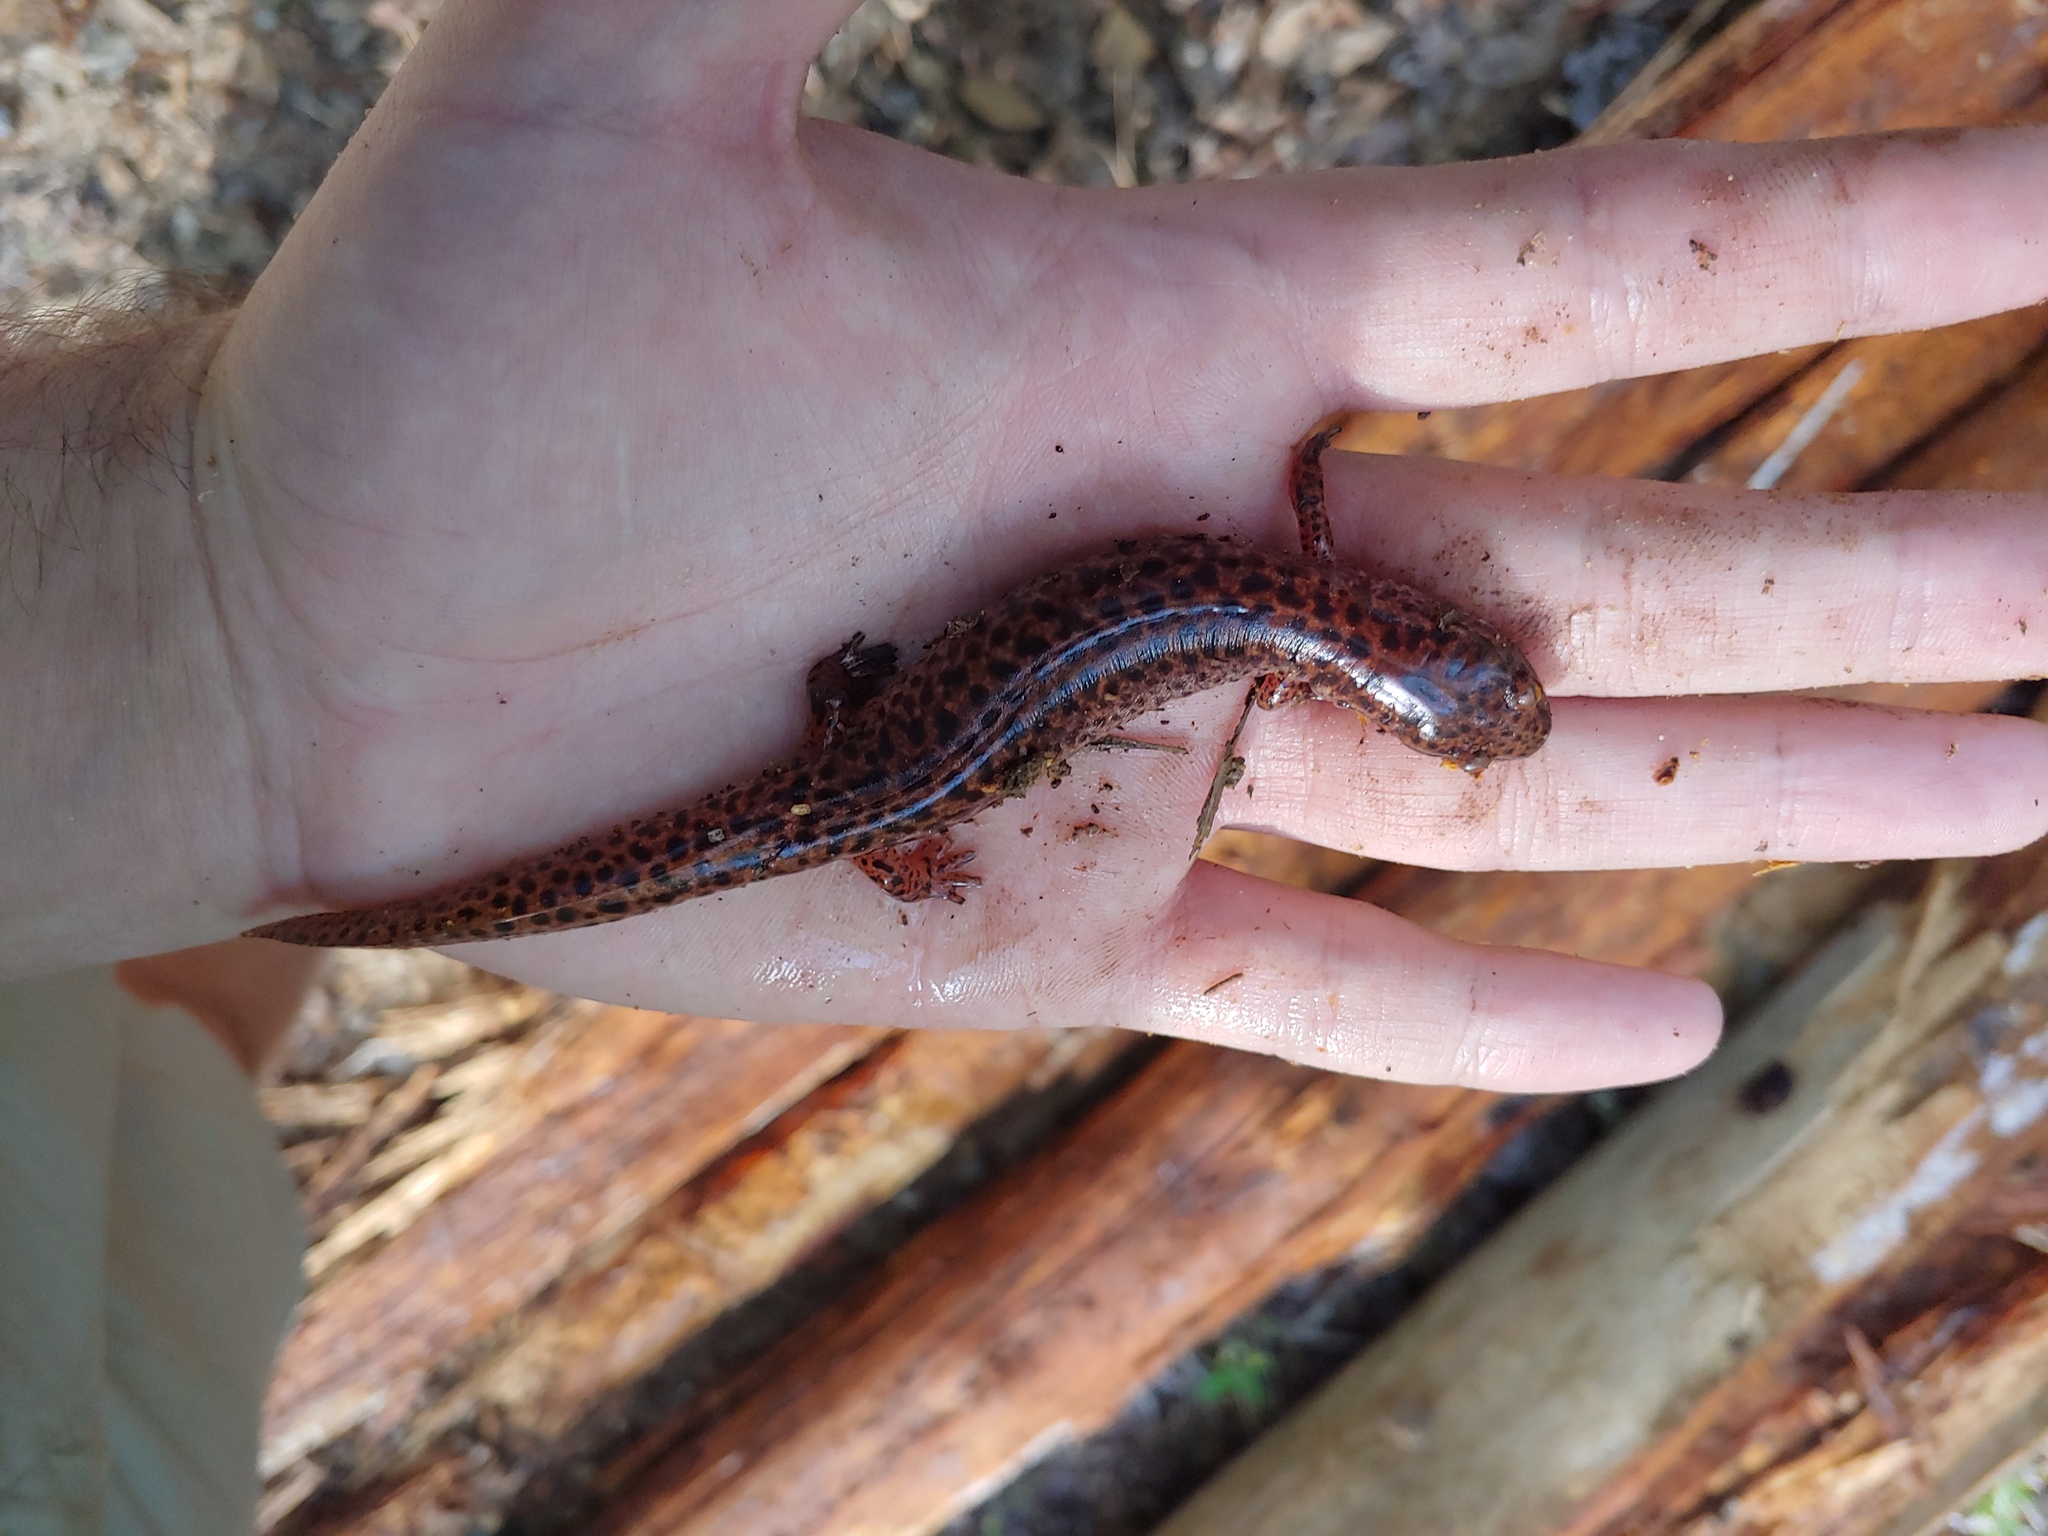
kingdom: Animalia
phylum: Chordata
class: Amphibia
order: Caudata
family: Plethodontidae
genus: Pseudotriton
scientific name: Pseudotriton ruber
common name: Red salamander
